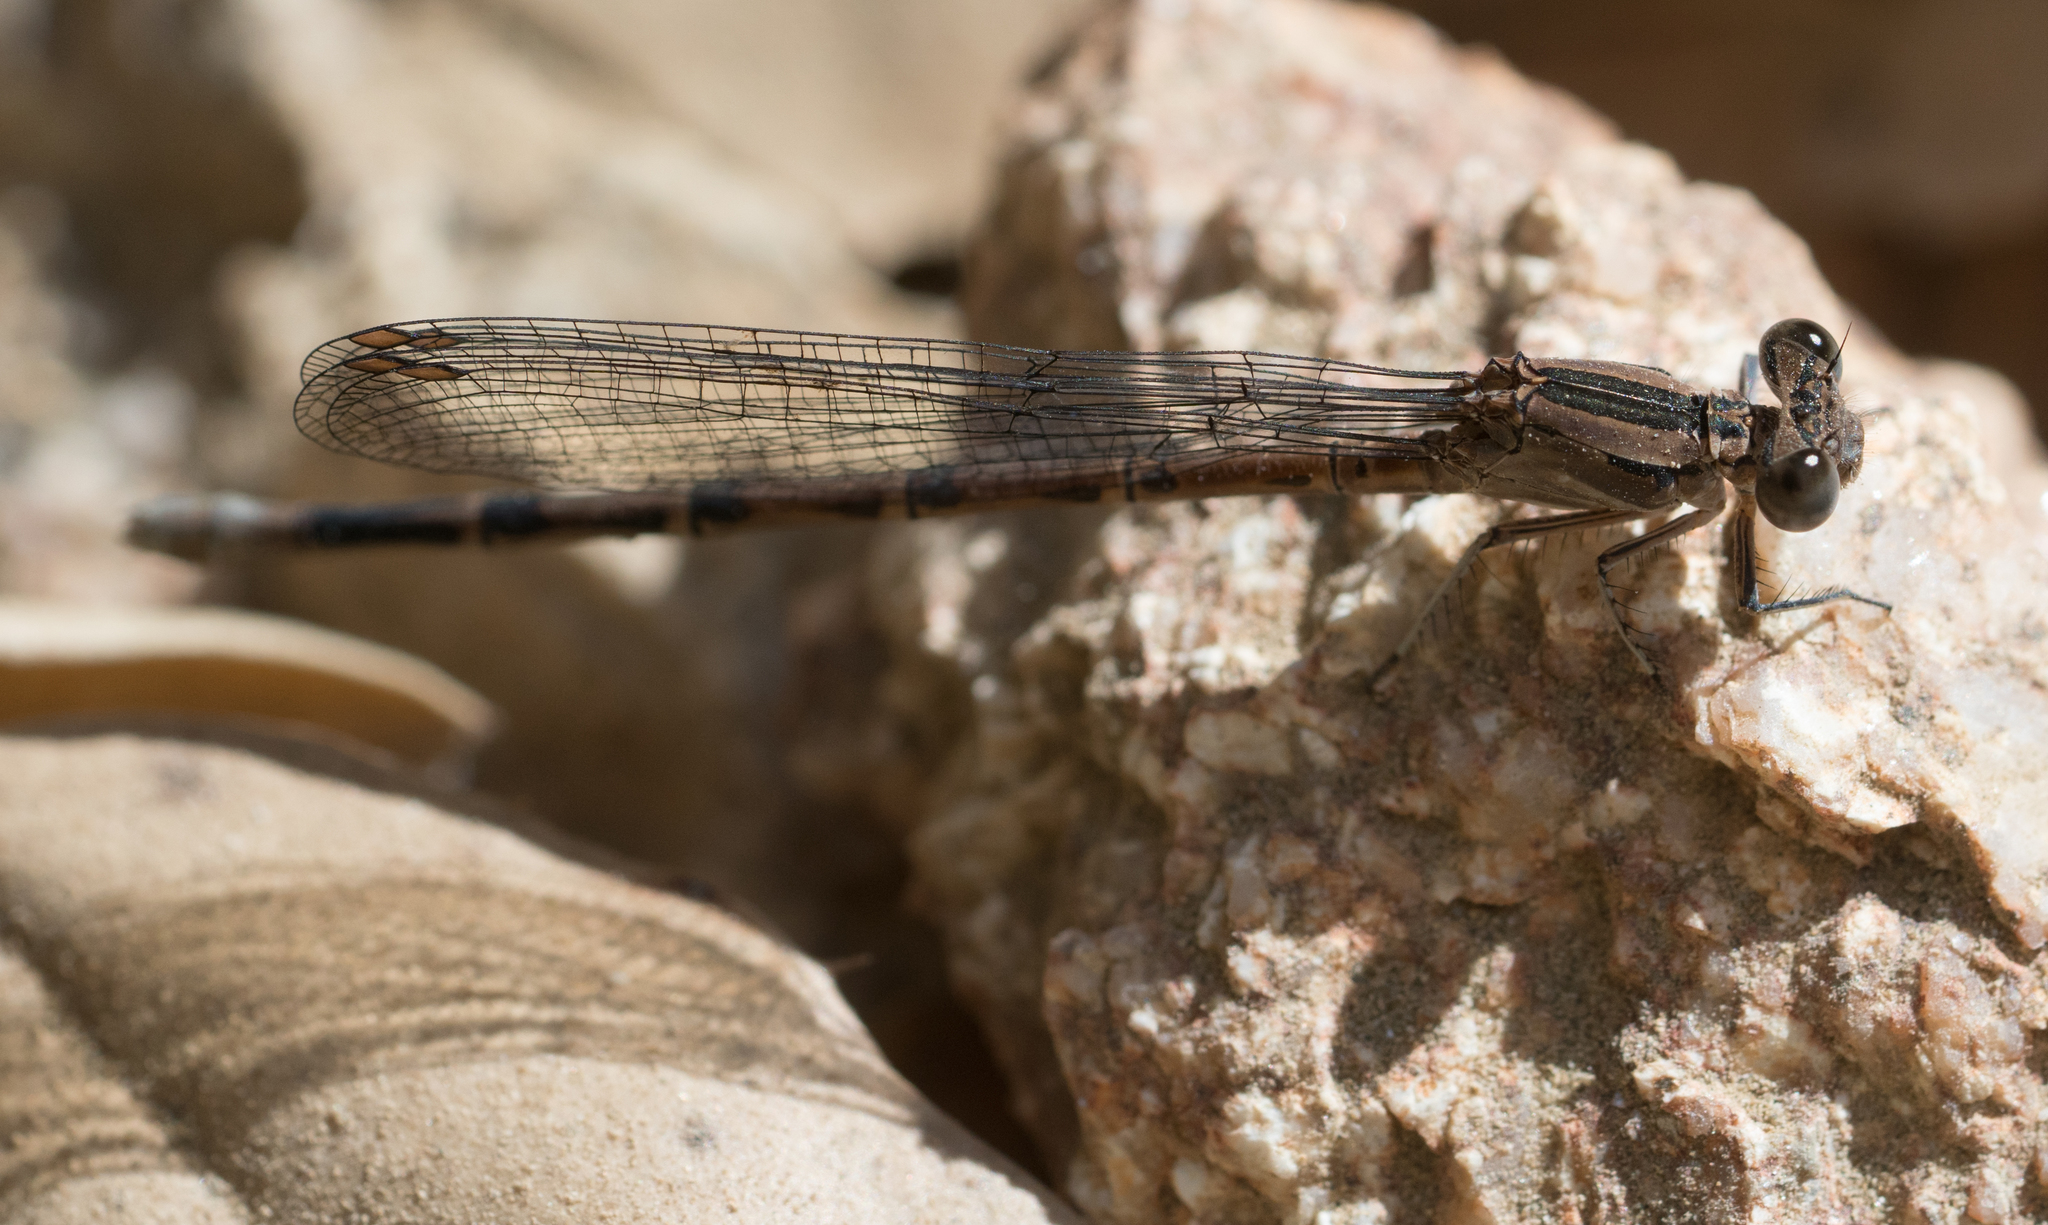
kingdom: Animalia
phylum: Arthropoda
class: Insecta
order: Odonata
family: Coenagrionidae
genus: Argia
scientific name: Argia vivida
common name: Vivid dancer
